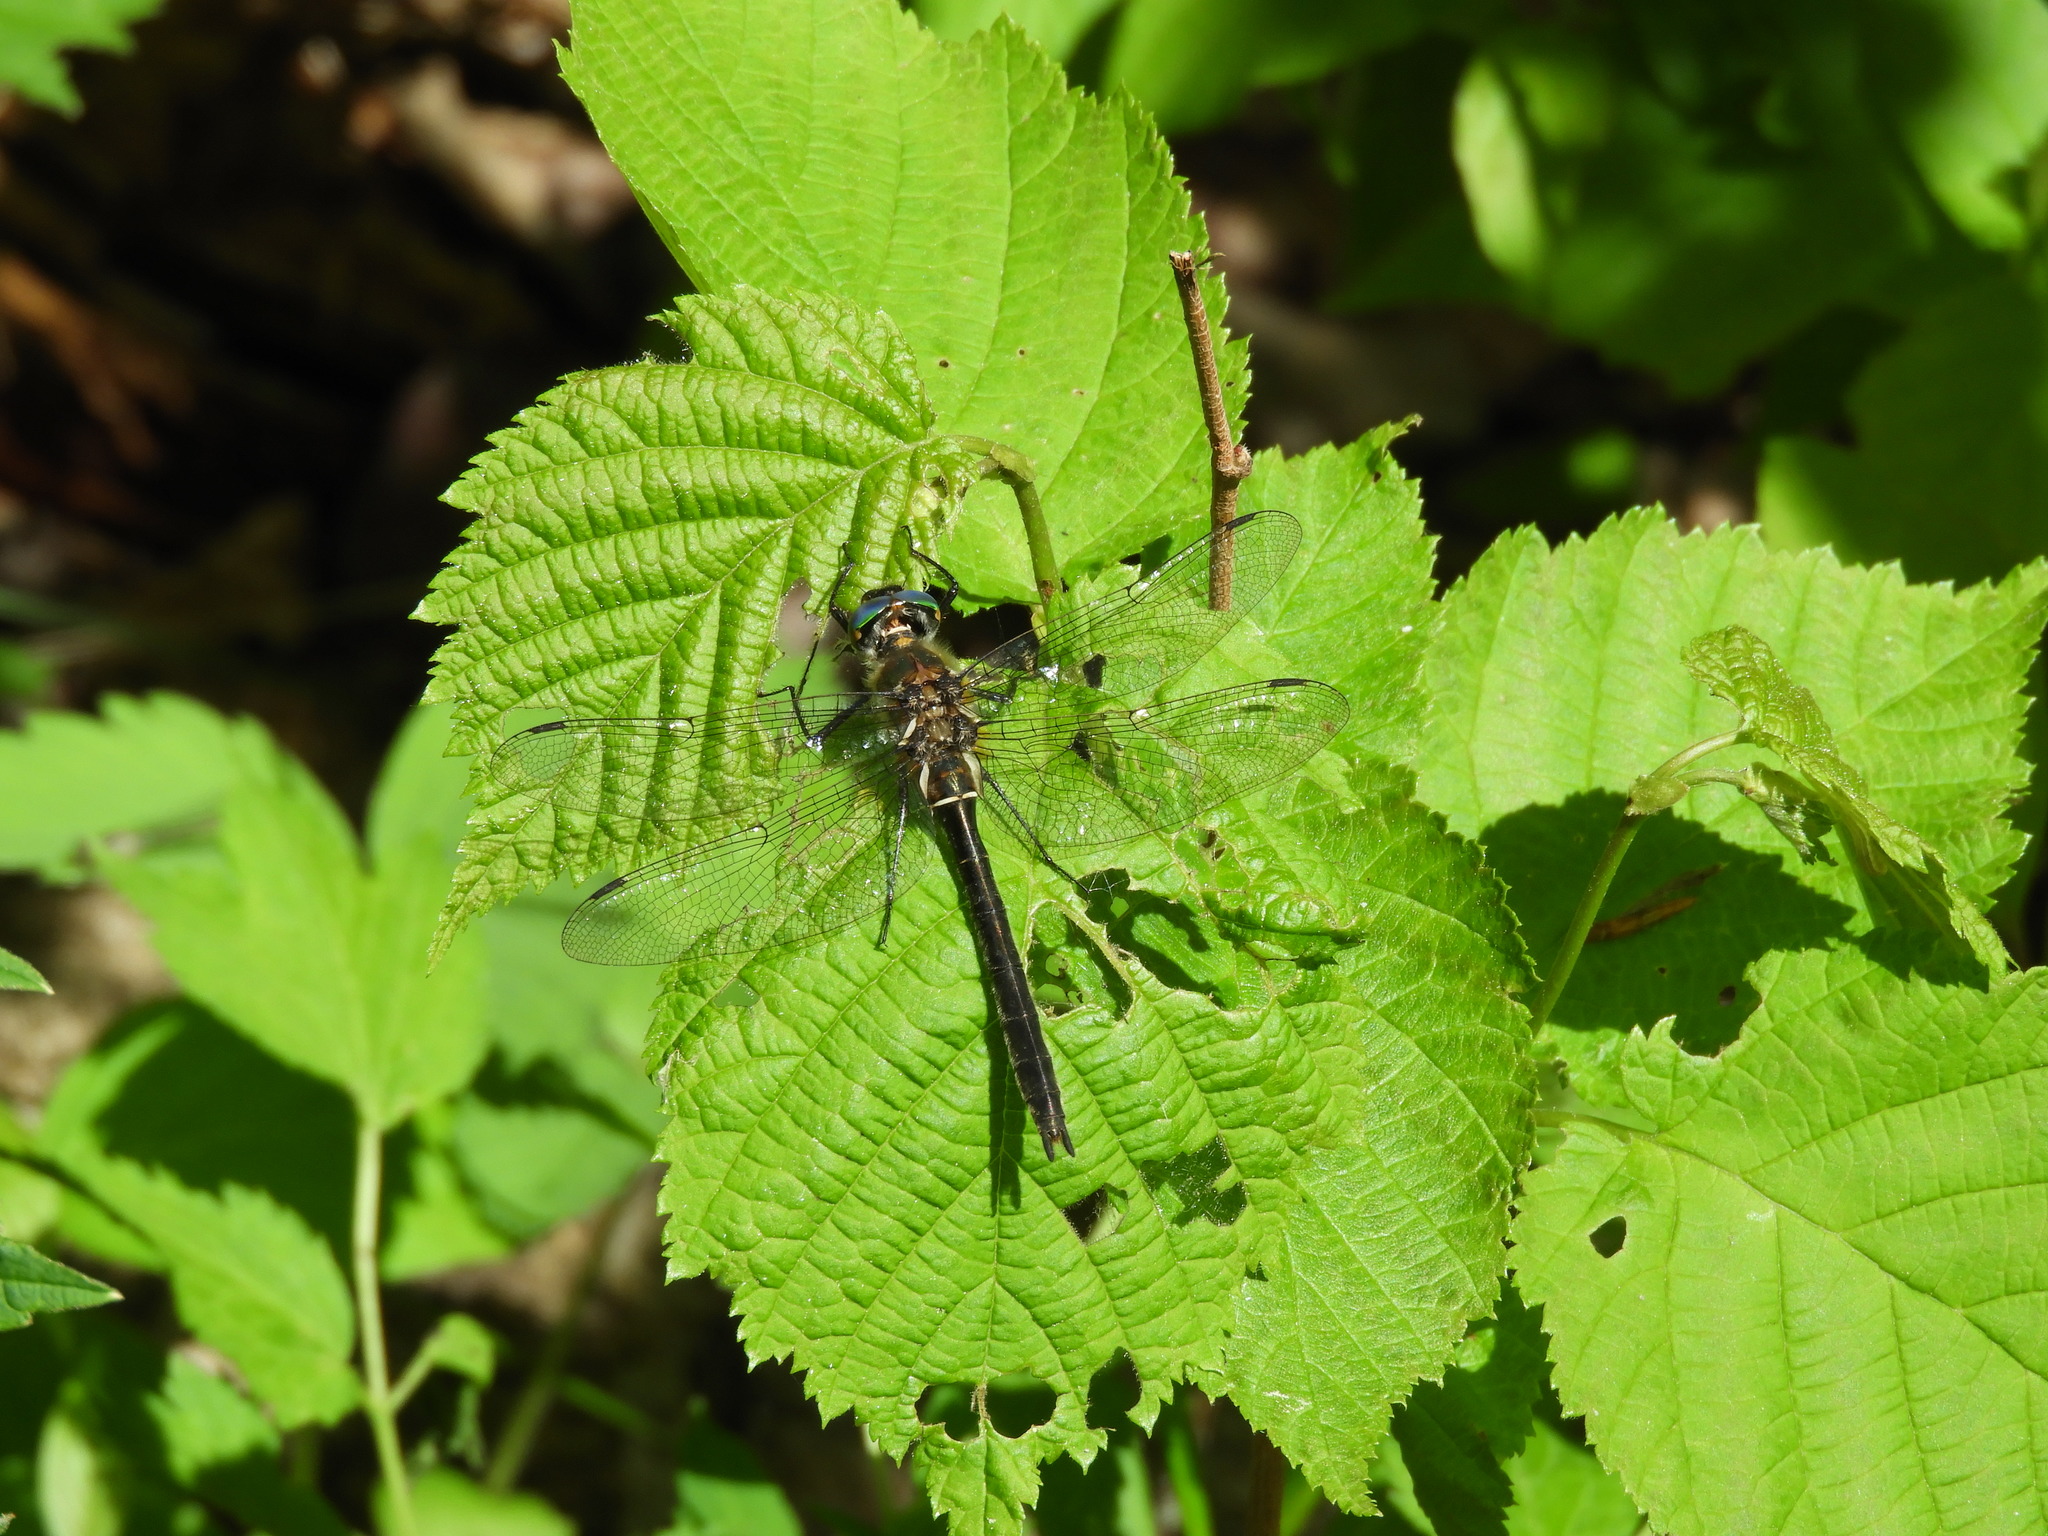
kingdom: Animalia
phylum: Arthropoda
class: Insecta
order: Odonata
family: Corduliidae
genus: Cordulia
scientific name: Cordulia shurtleffii
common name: American emerald
